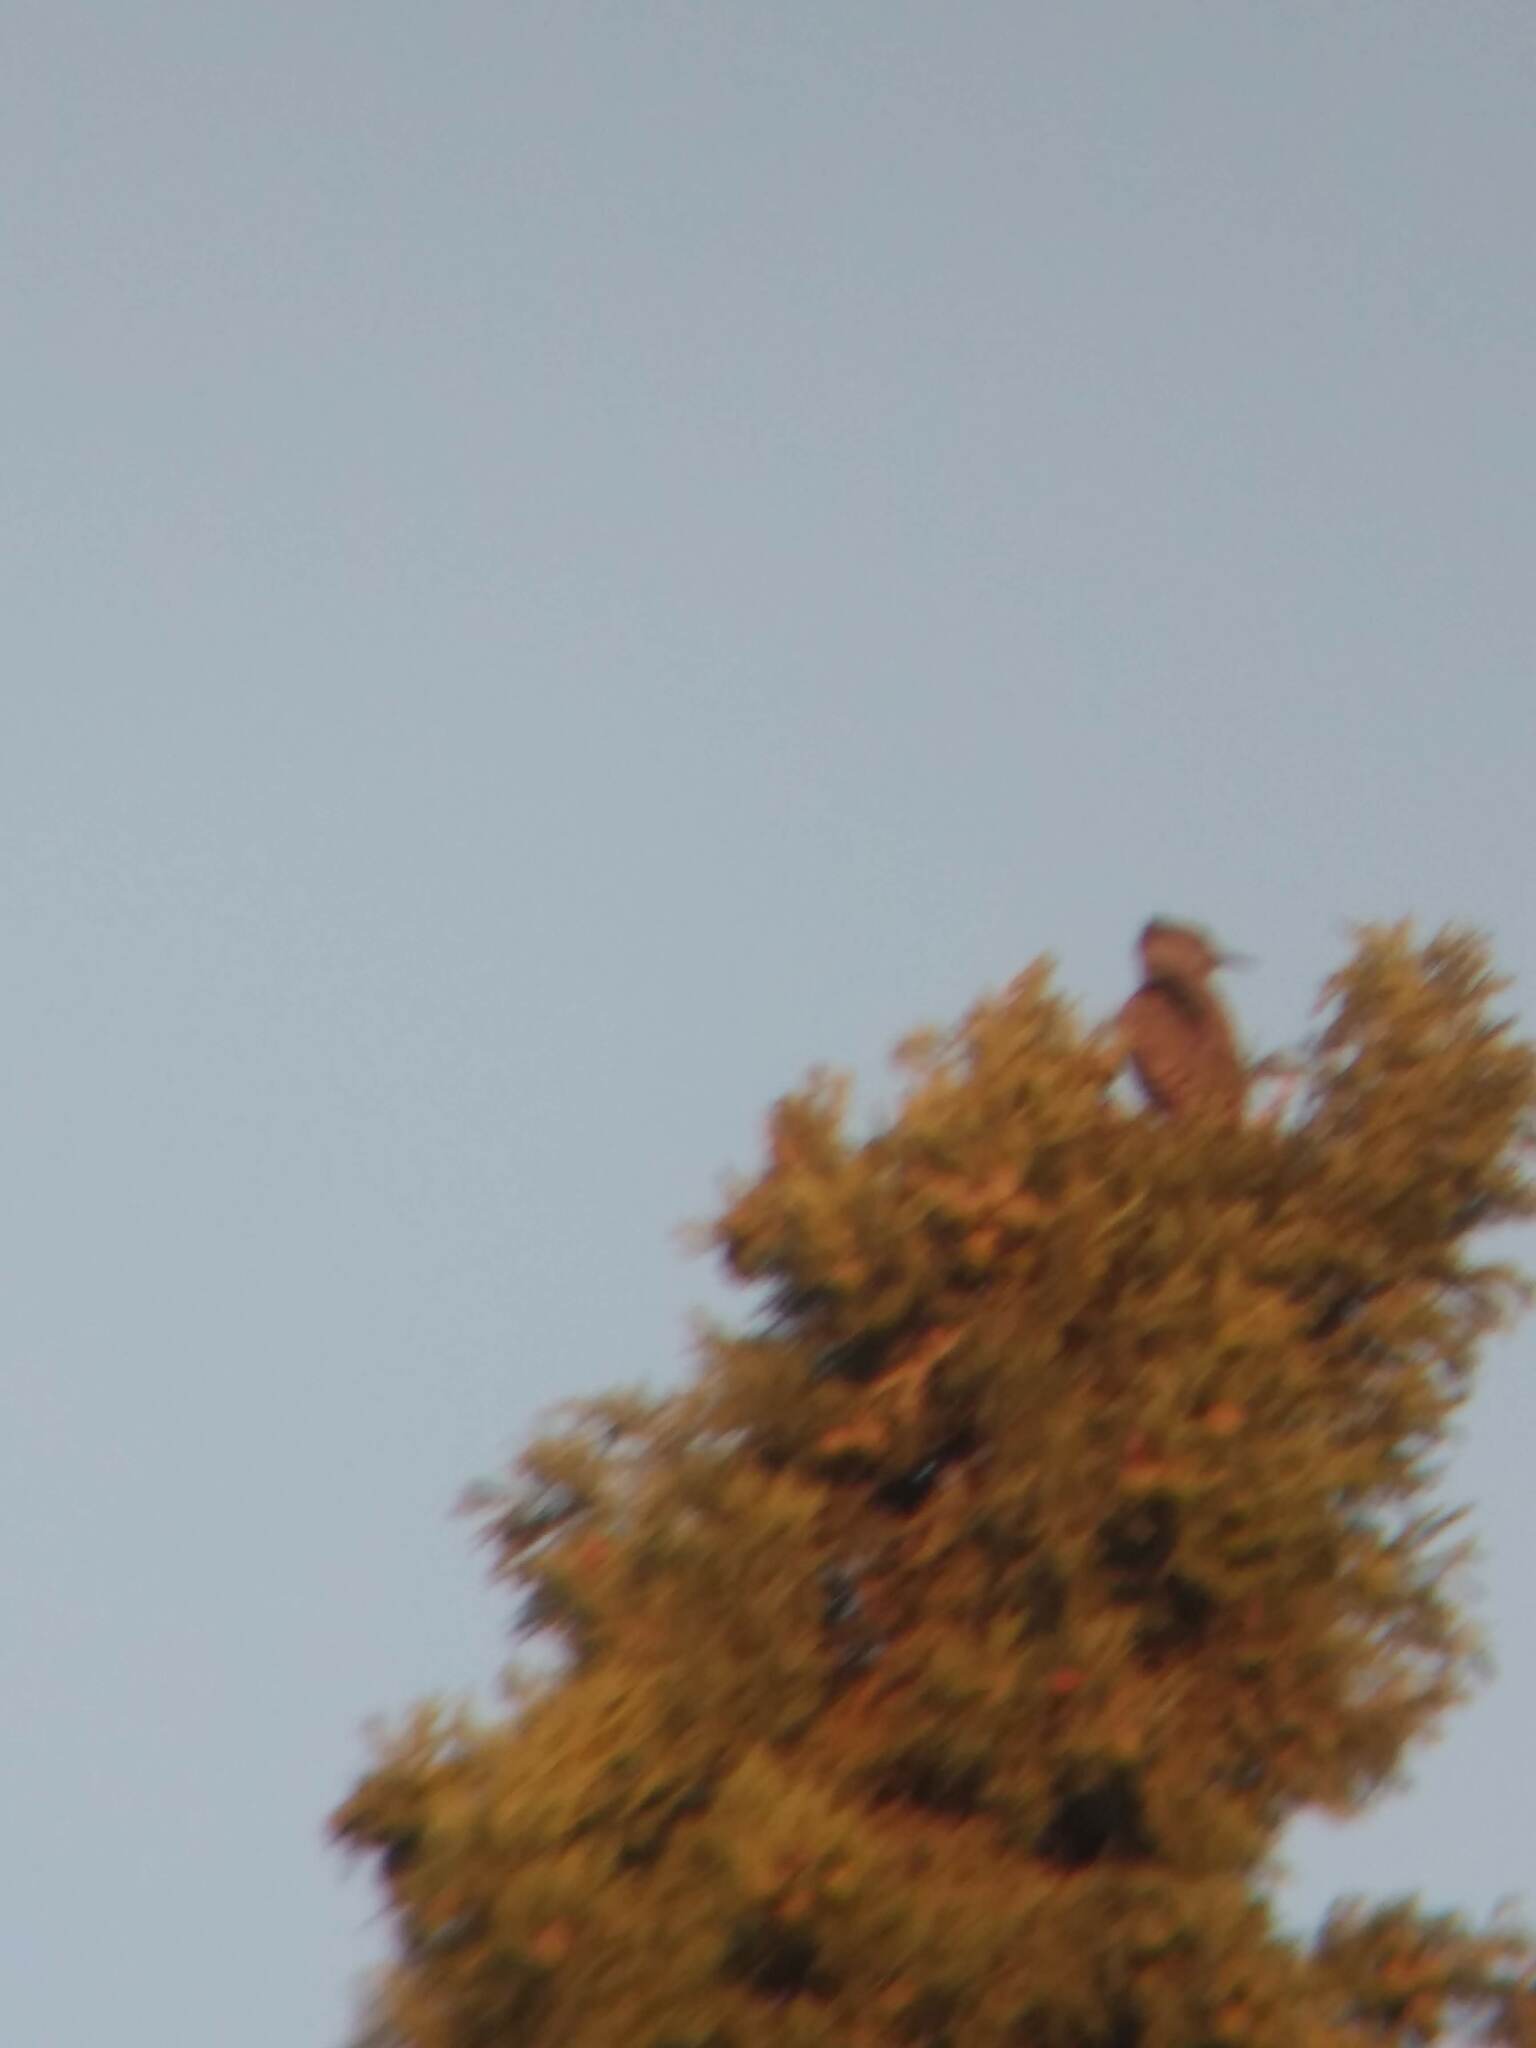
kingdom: Animalia
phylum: Chordata
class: Aves
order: Piciformes
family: Picidae
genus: Colaptes
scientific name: Colaptes auratus
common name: Northern flicker
